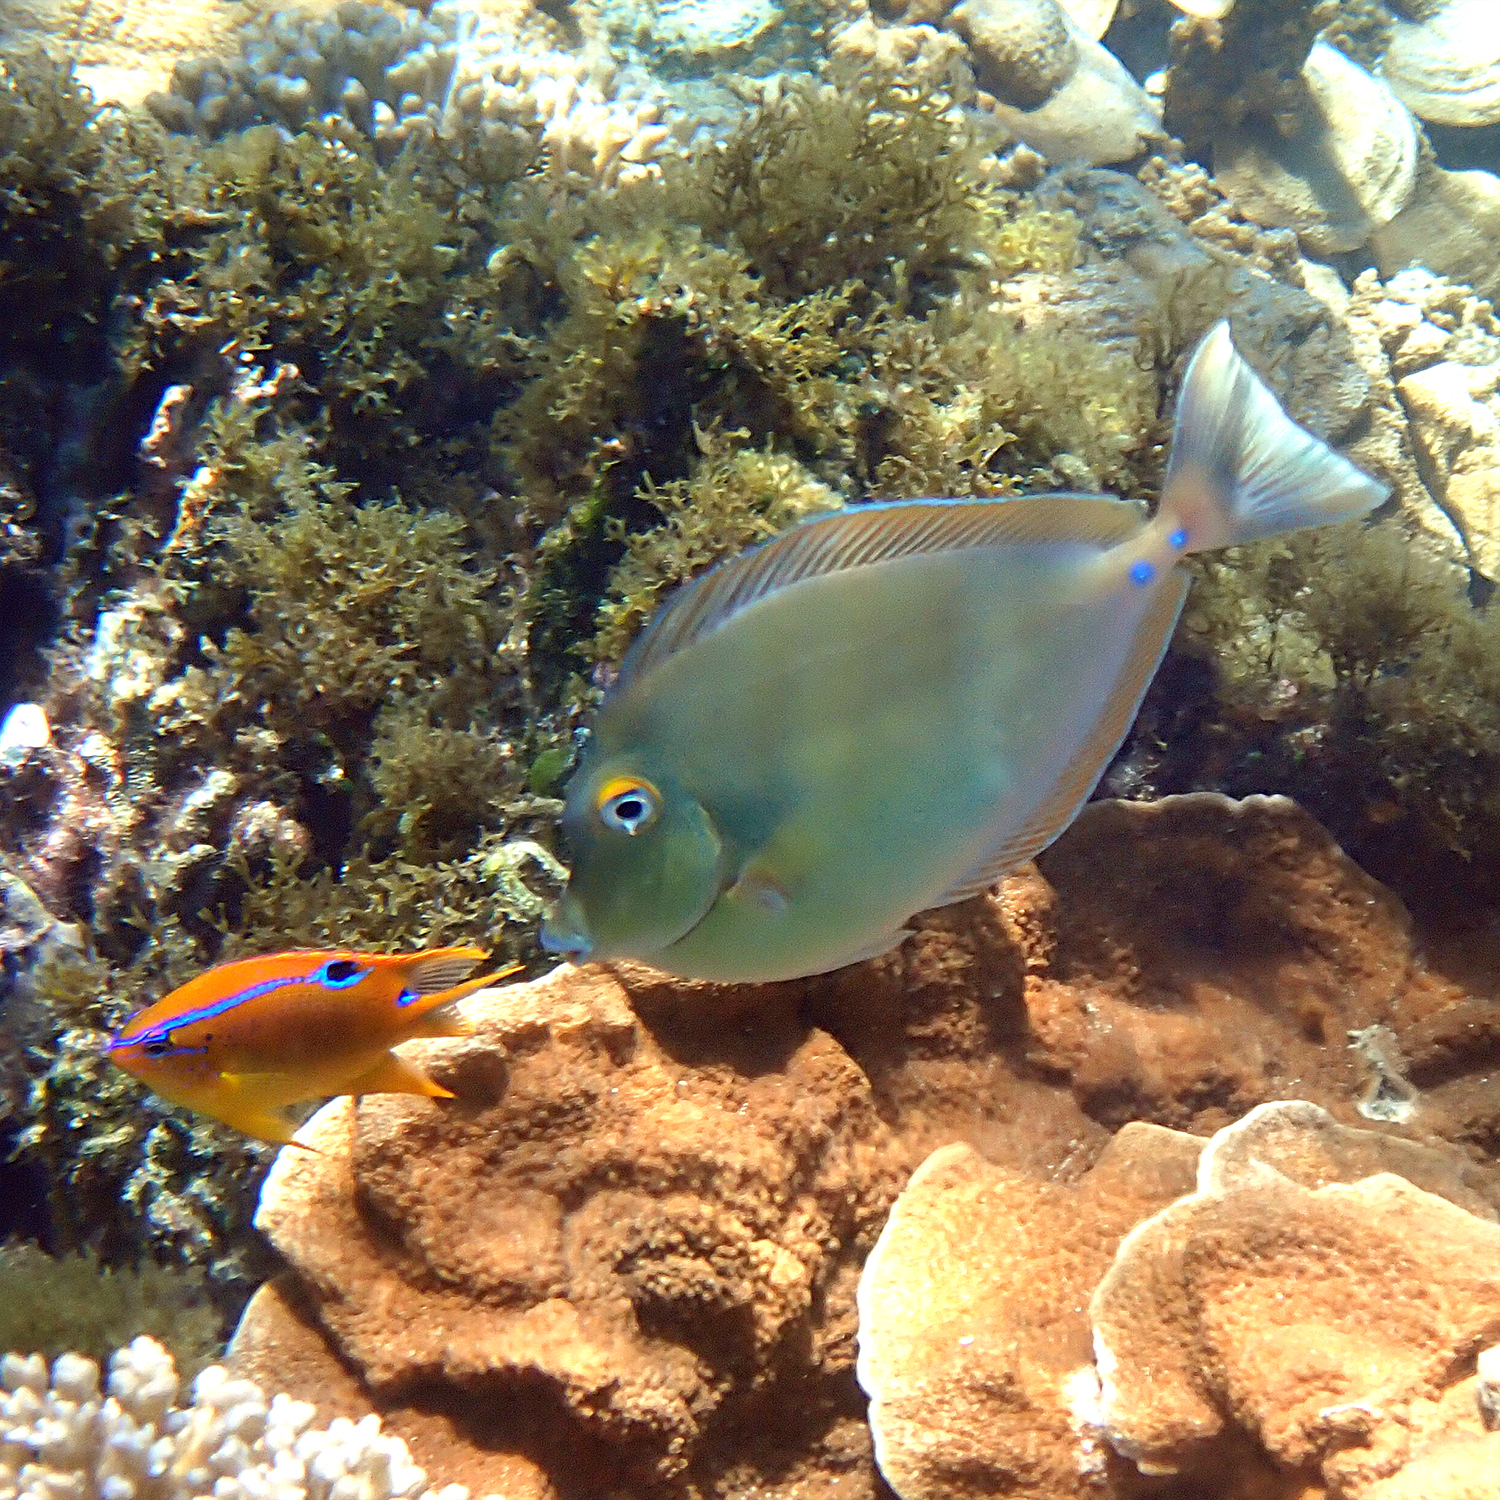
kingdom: Animalia
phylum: Chordata
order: Perciformes
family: Acanthuridae
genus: Naso
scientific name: Naso unicornis
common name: Bluespine unicornfish
